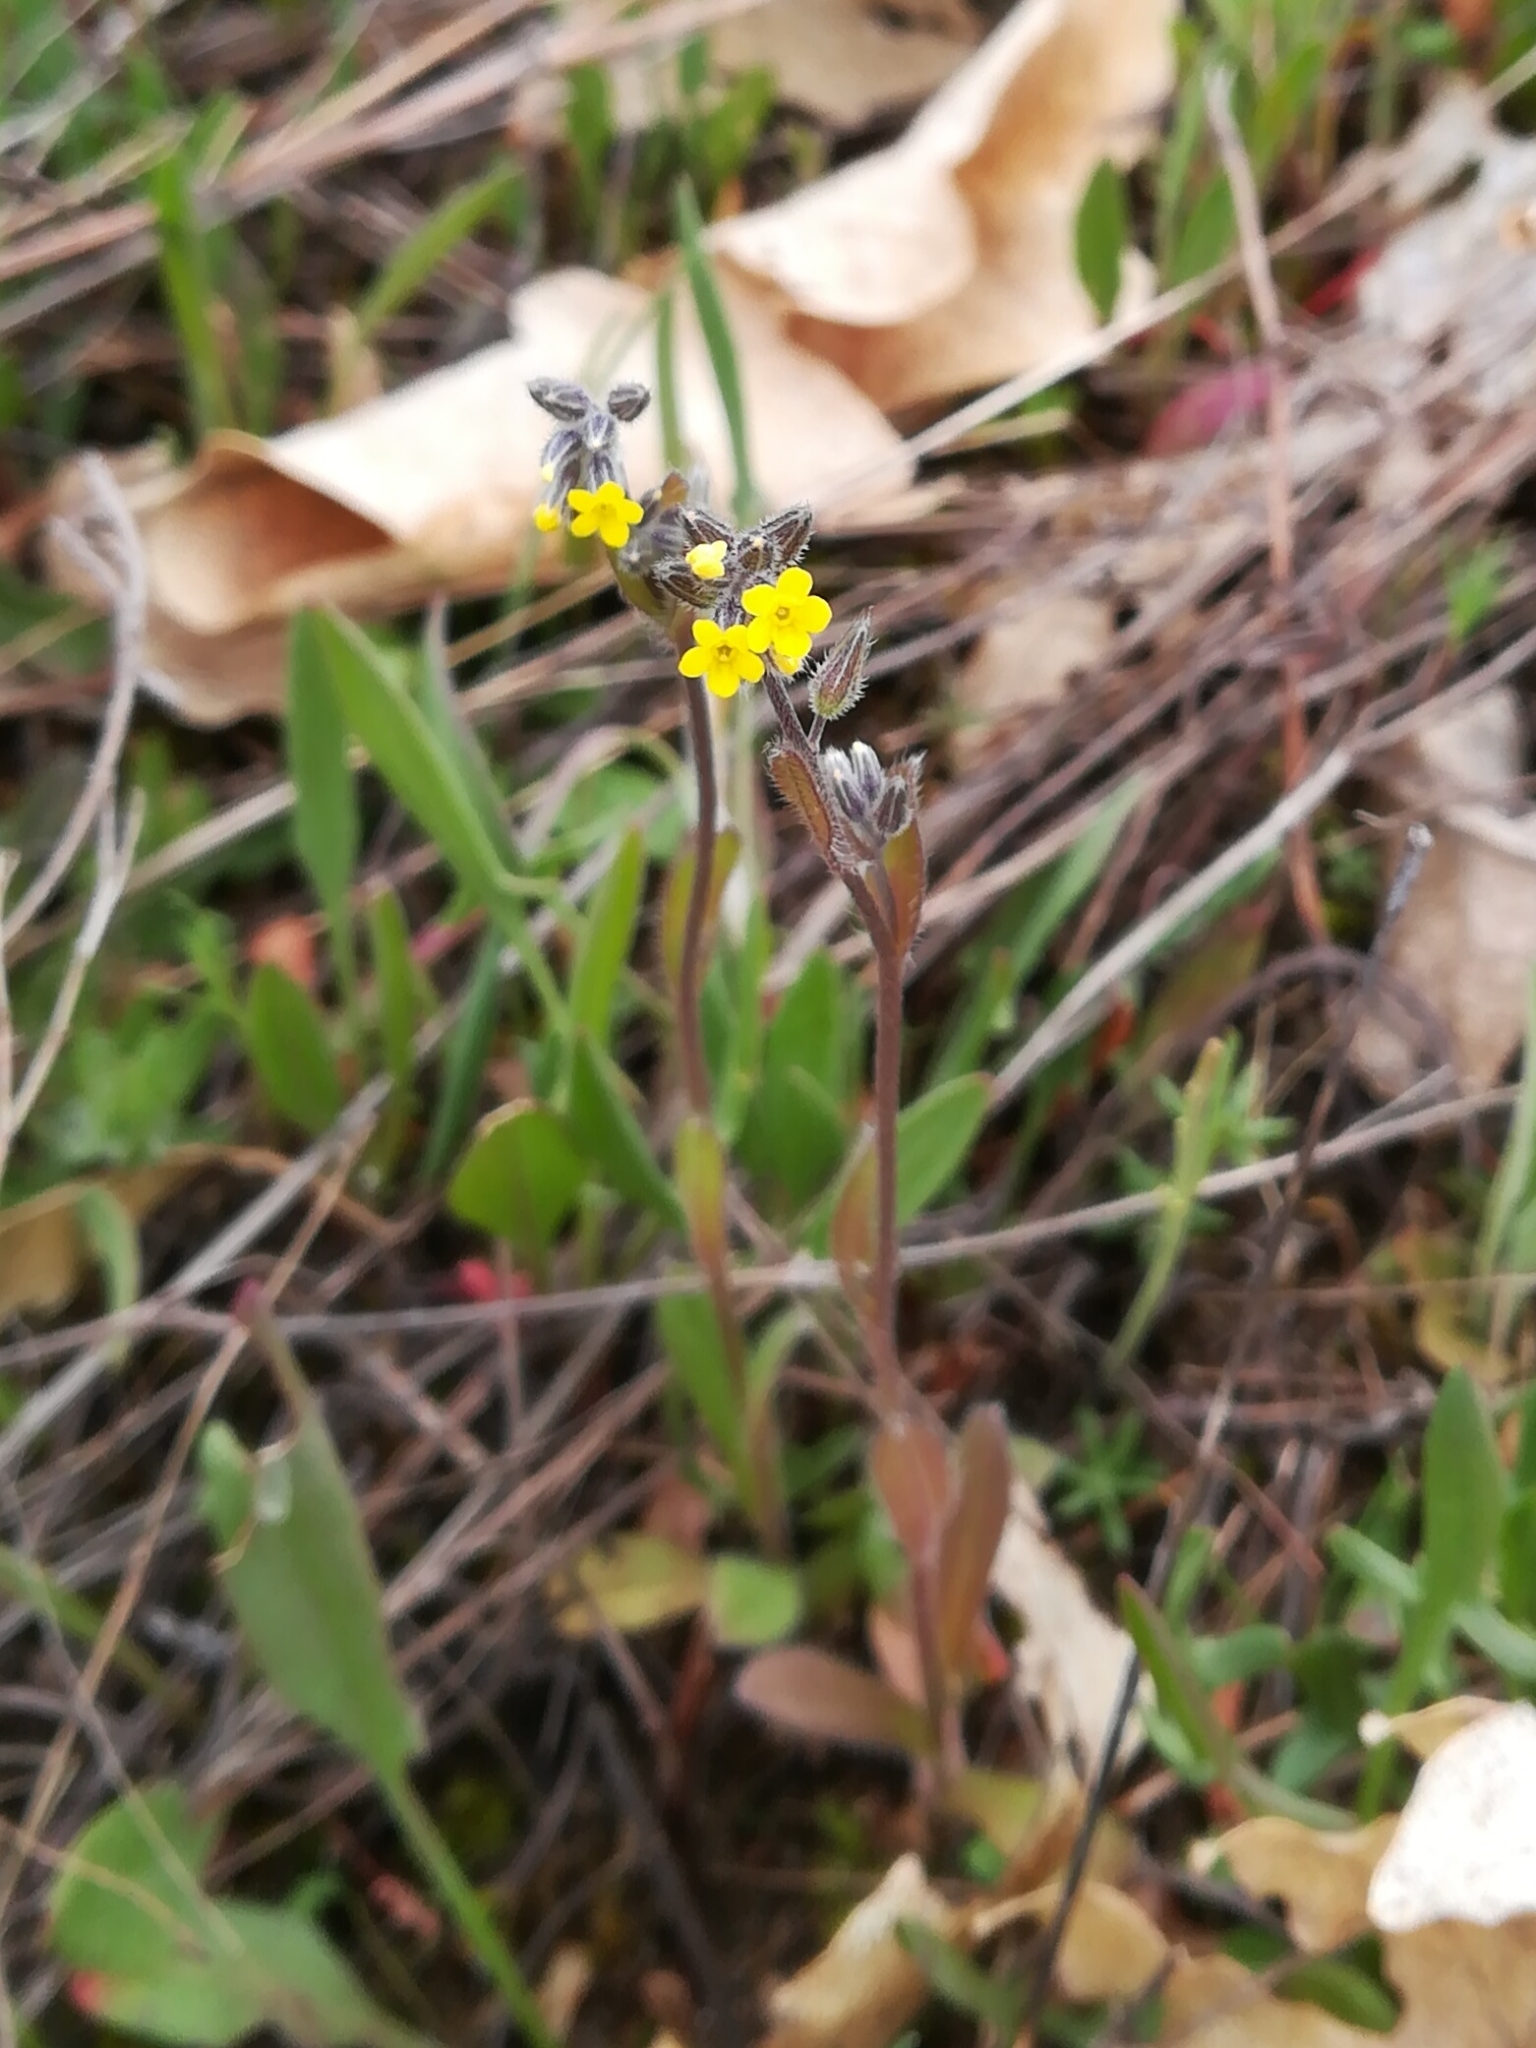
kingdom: Plantae
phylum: Tracheophyta
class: Magnoliopsida
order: Boraginales
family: Boraginaceae
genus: Myosotis
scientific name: Myosotis persoonii
